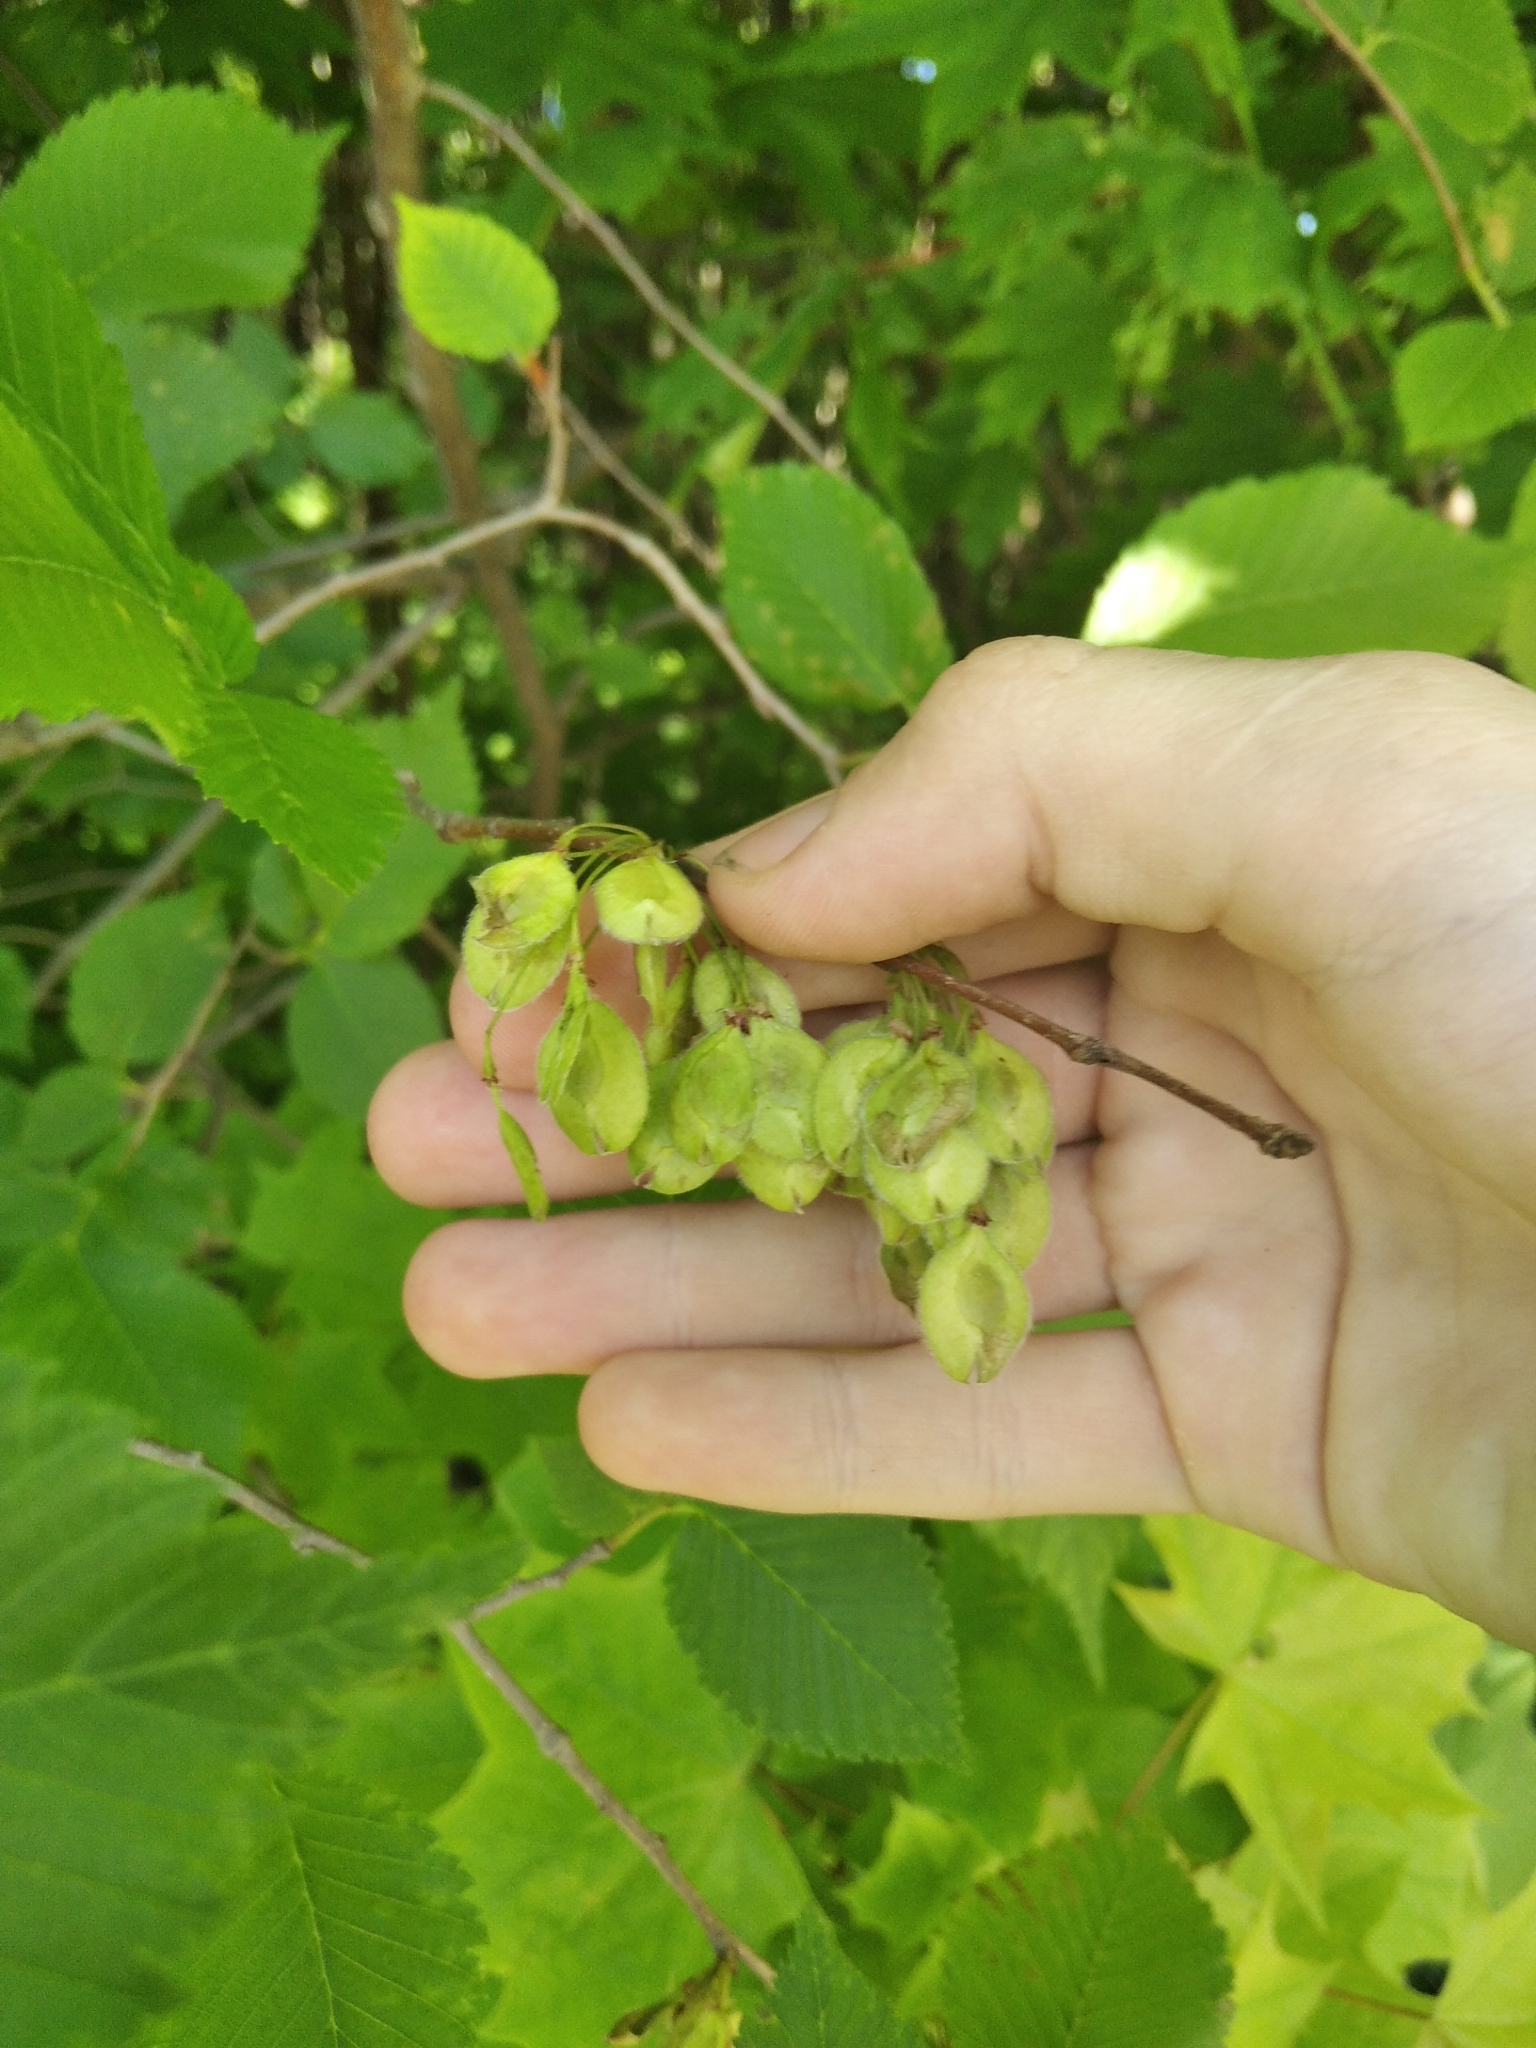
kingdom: Plantae
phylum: Tracheophyta
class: Magnoliopsida
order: Rosales
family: Ulmaceae
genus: Ulmus
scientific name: Ulmus laevis
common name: European white-elm
